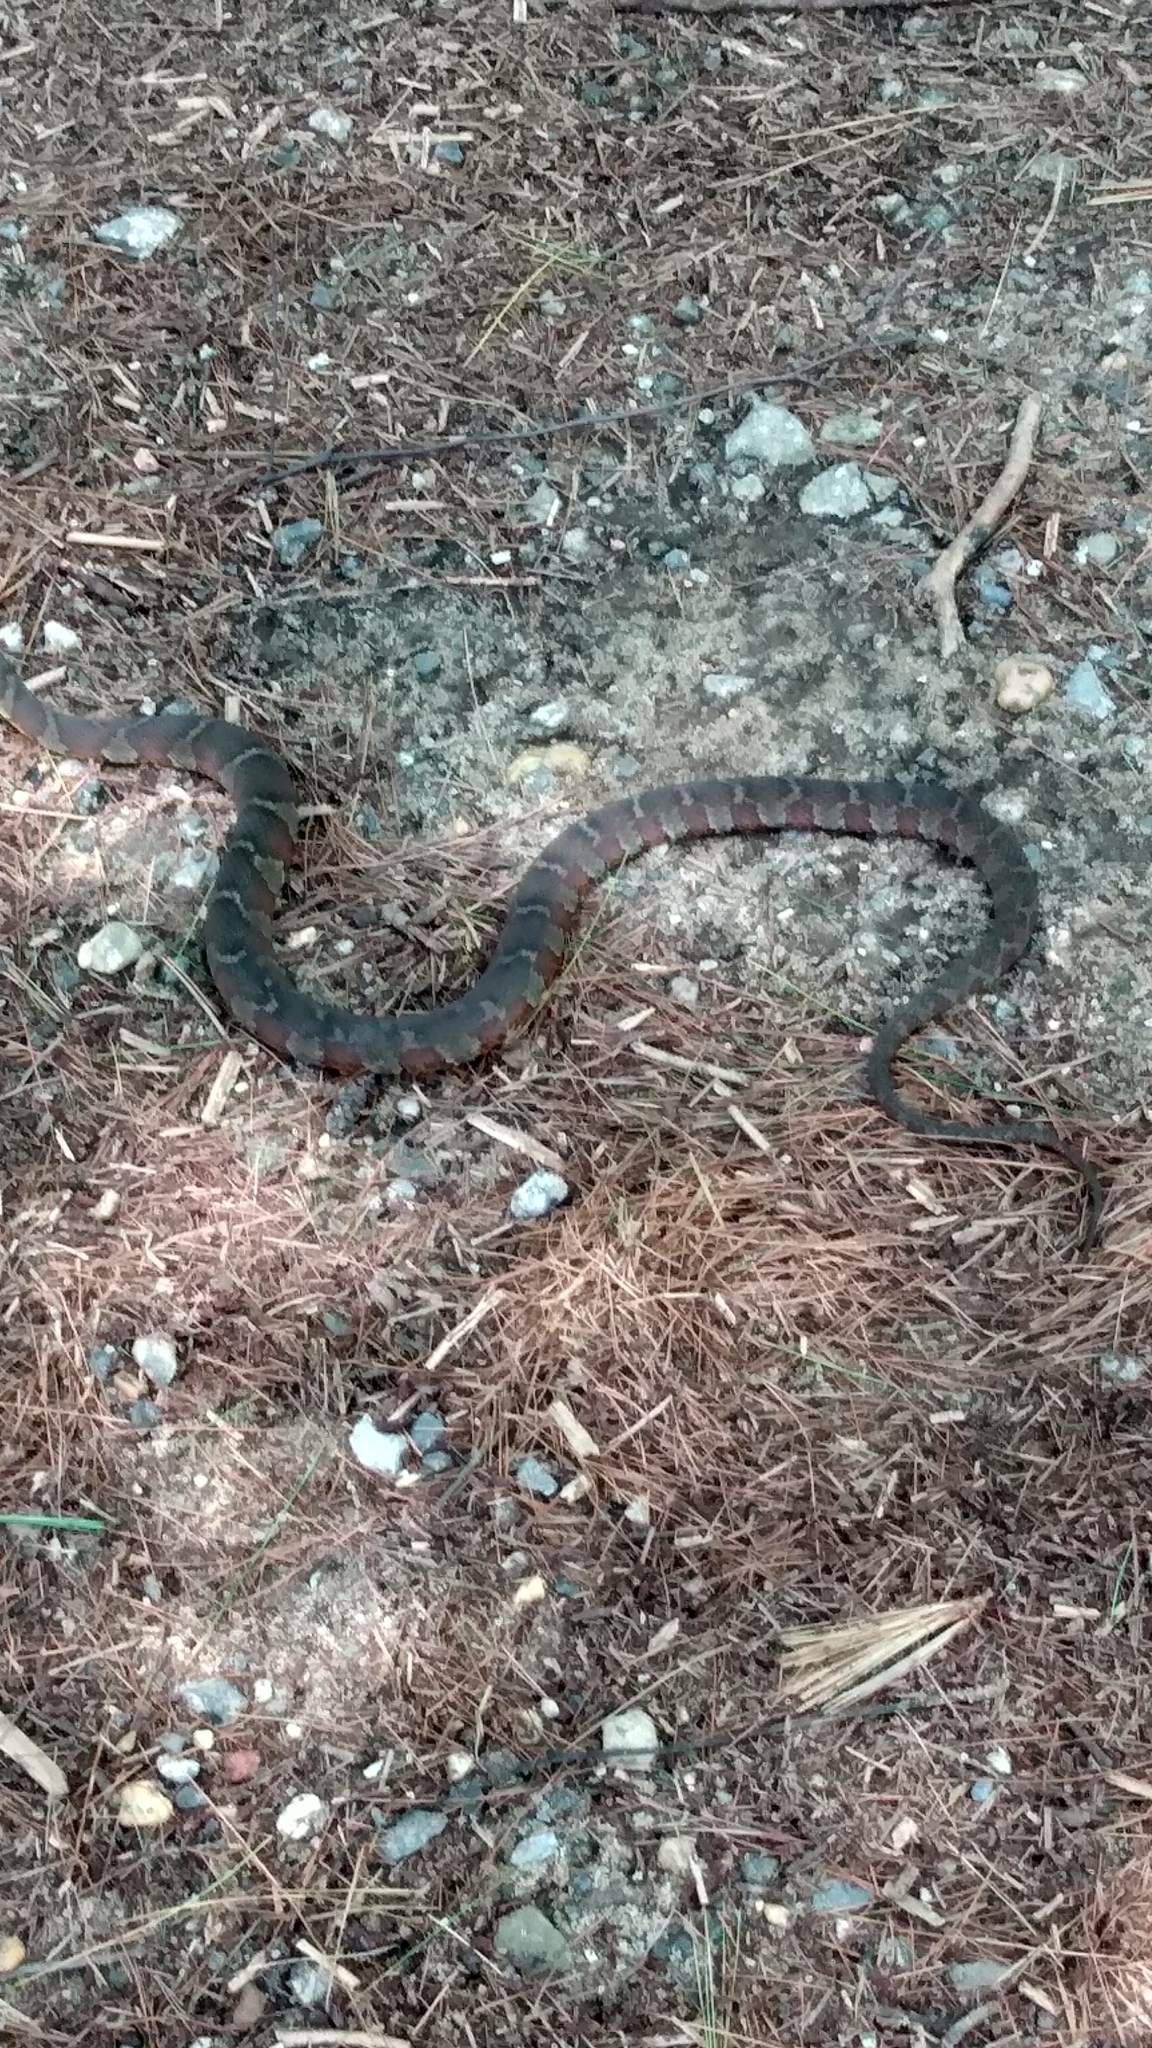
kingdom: Animalia
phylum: Chordata
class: Squamata
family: Colubridae
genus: Nerodia
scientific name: Nerodia sipedon
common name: Northern water snake
